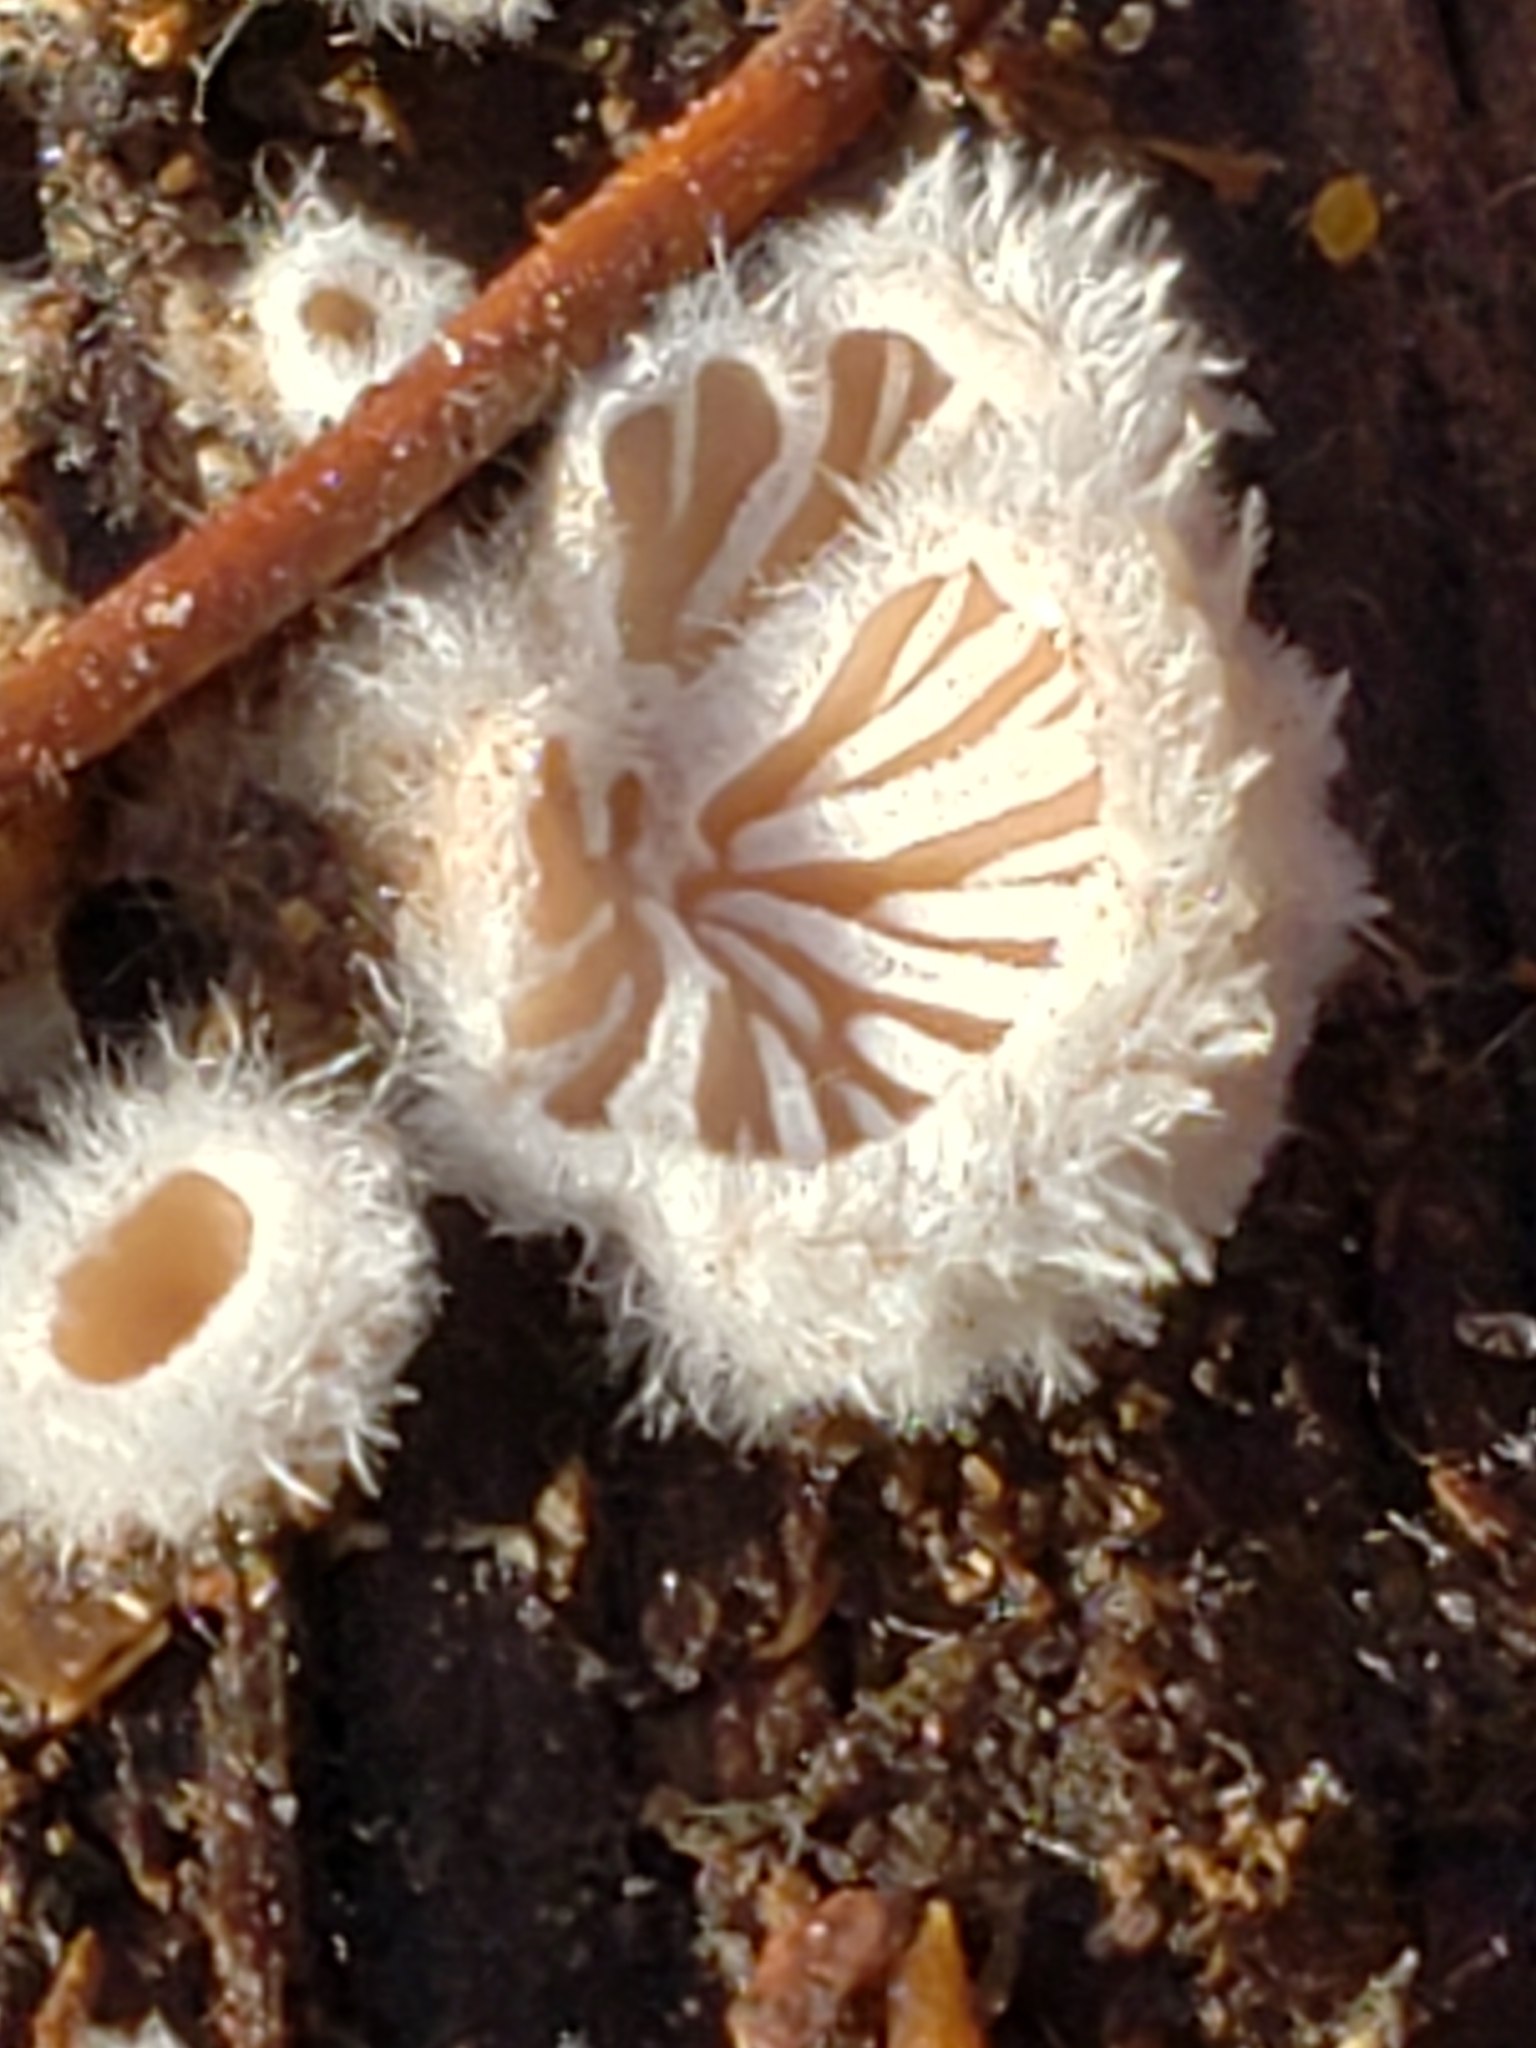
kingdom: Fungi
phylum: Basidiomycota
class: Agaricomycetes
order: Agaricales
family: Schizophyllaceae
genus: Schizophyllum
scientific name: Schizophyllum commune
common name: Common porecrust
